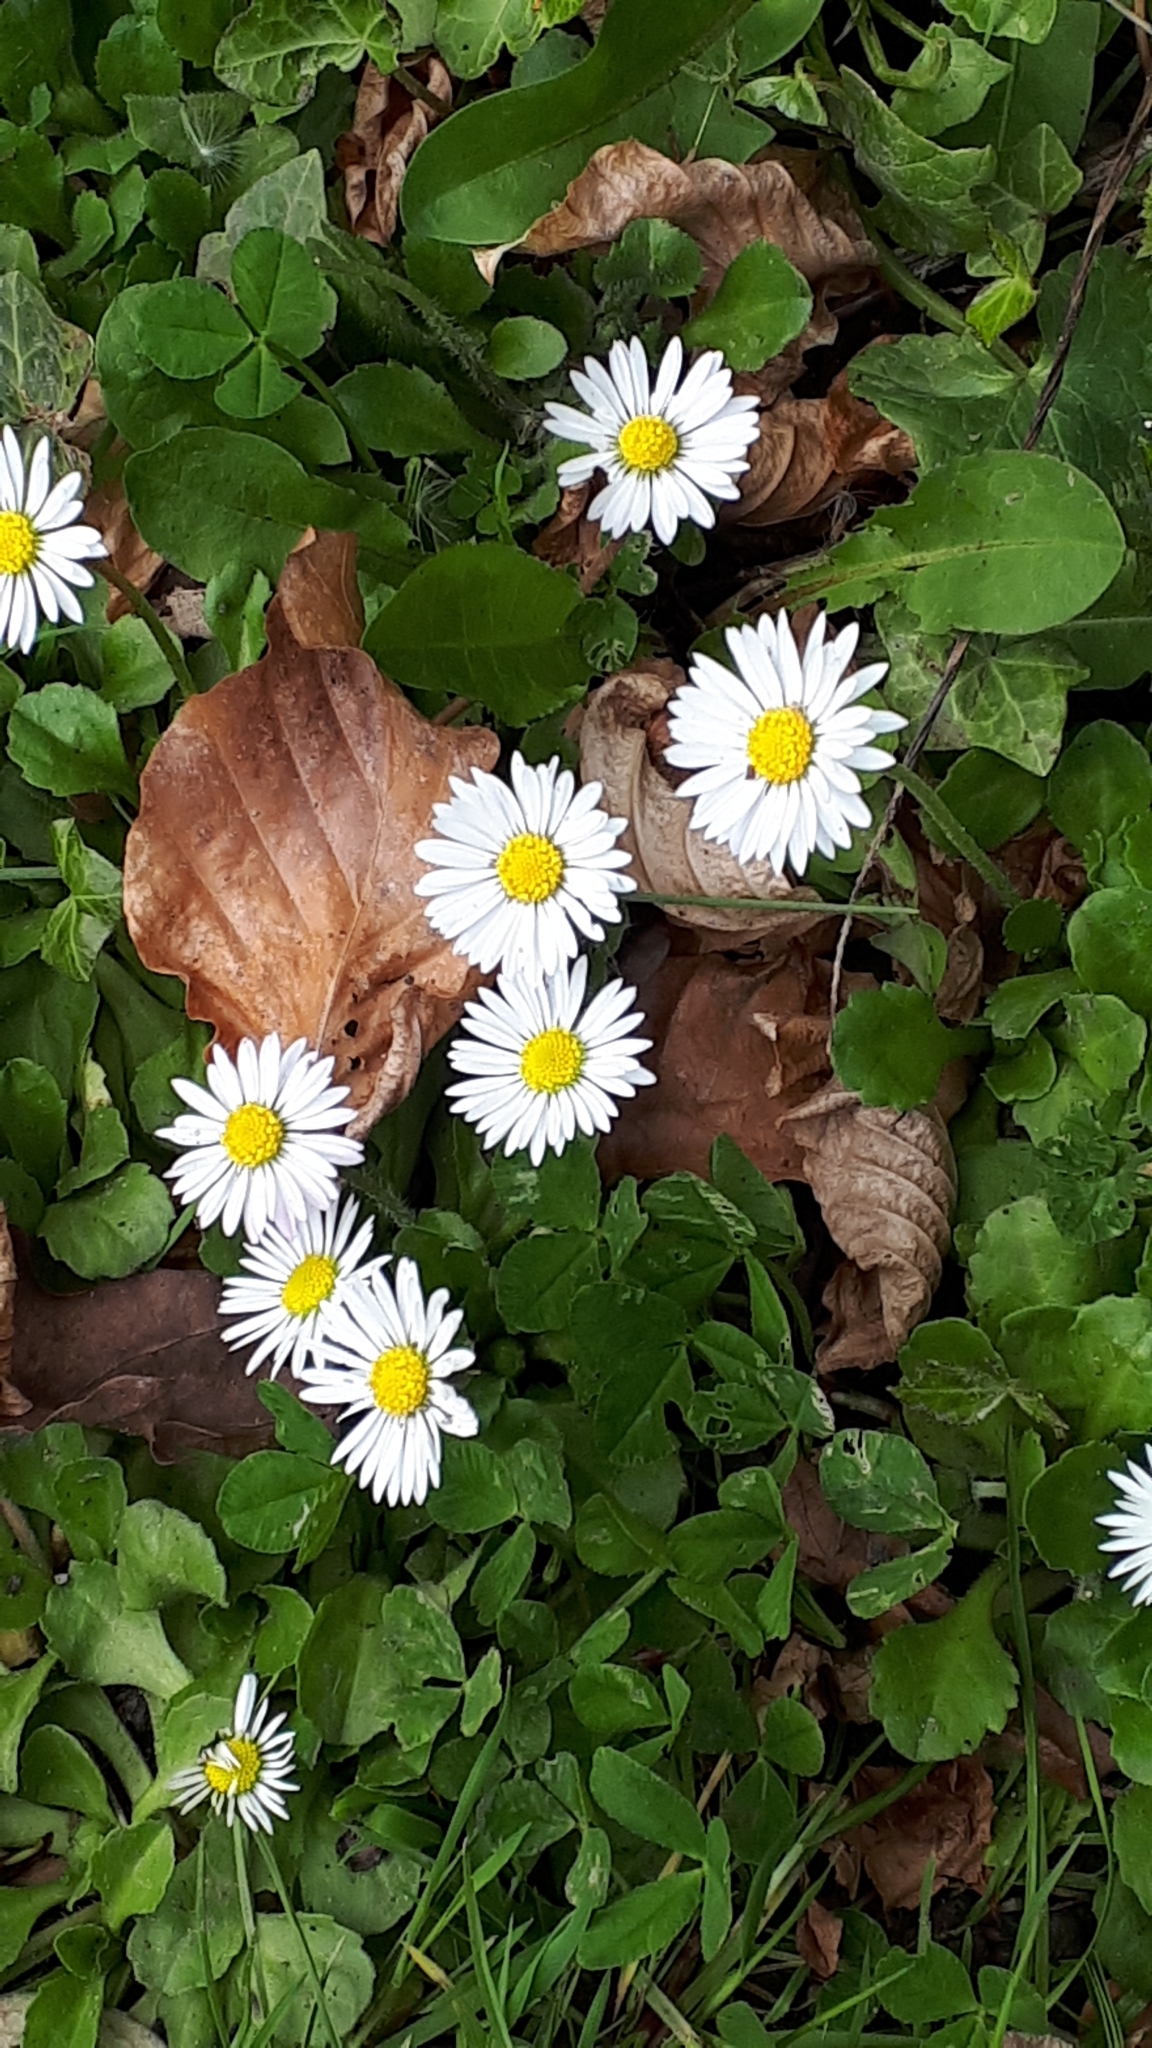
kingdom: Plantae
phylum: Tracheophyta
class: Magnoliopsida
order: Asterales
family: Asteraceae
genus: Bellis
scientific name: Bellis perennis
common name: Lawndaisy
